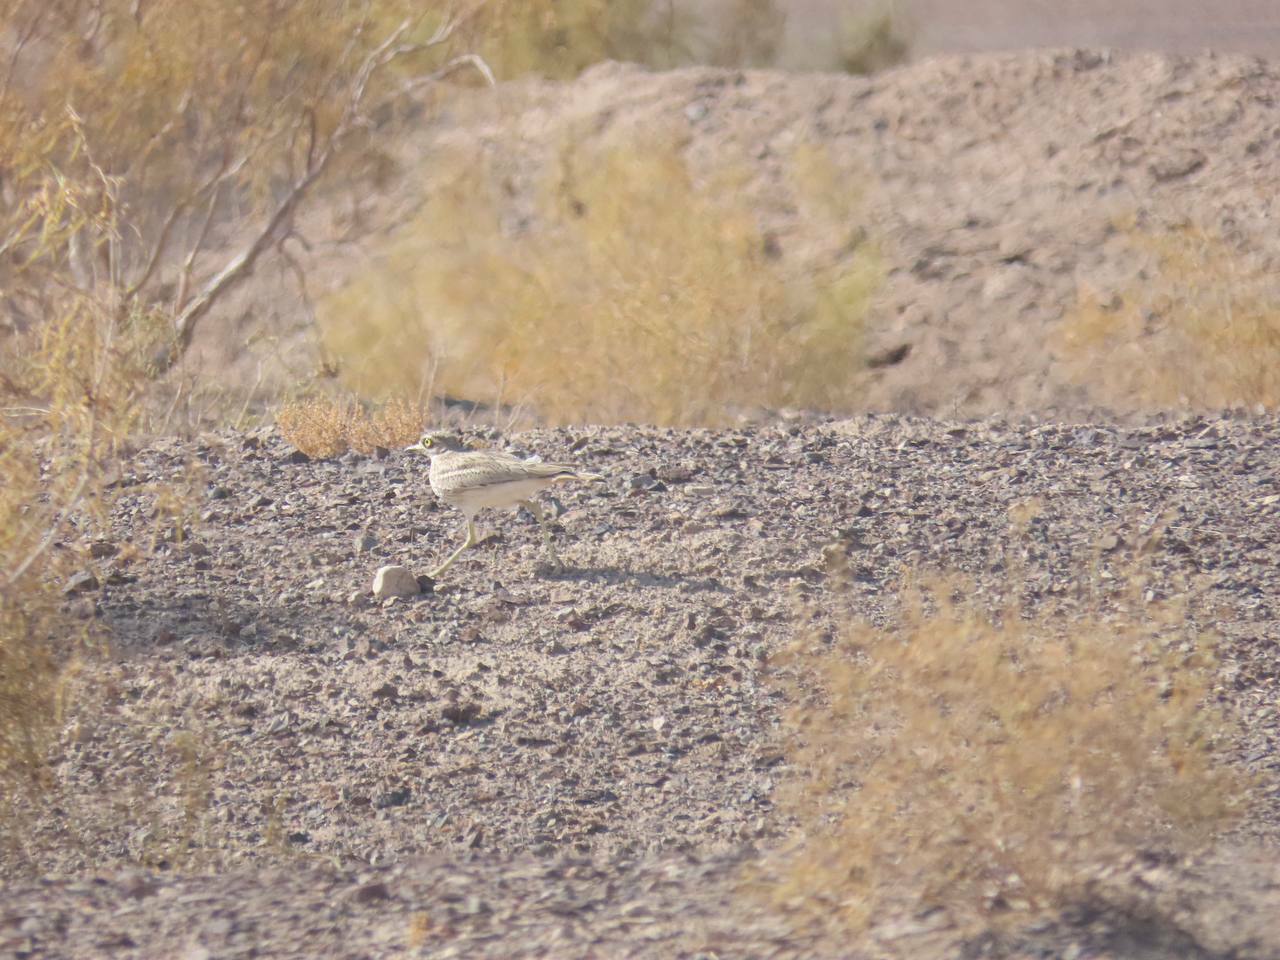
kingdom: Animalia
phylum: Chordata
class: Aves
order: Charadriiformes
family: Burhinidae
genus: Burhinus
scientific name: Burhinus oedicnemus
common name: Eurasian stone-curlew
